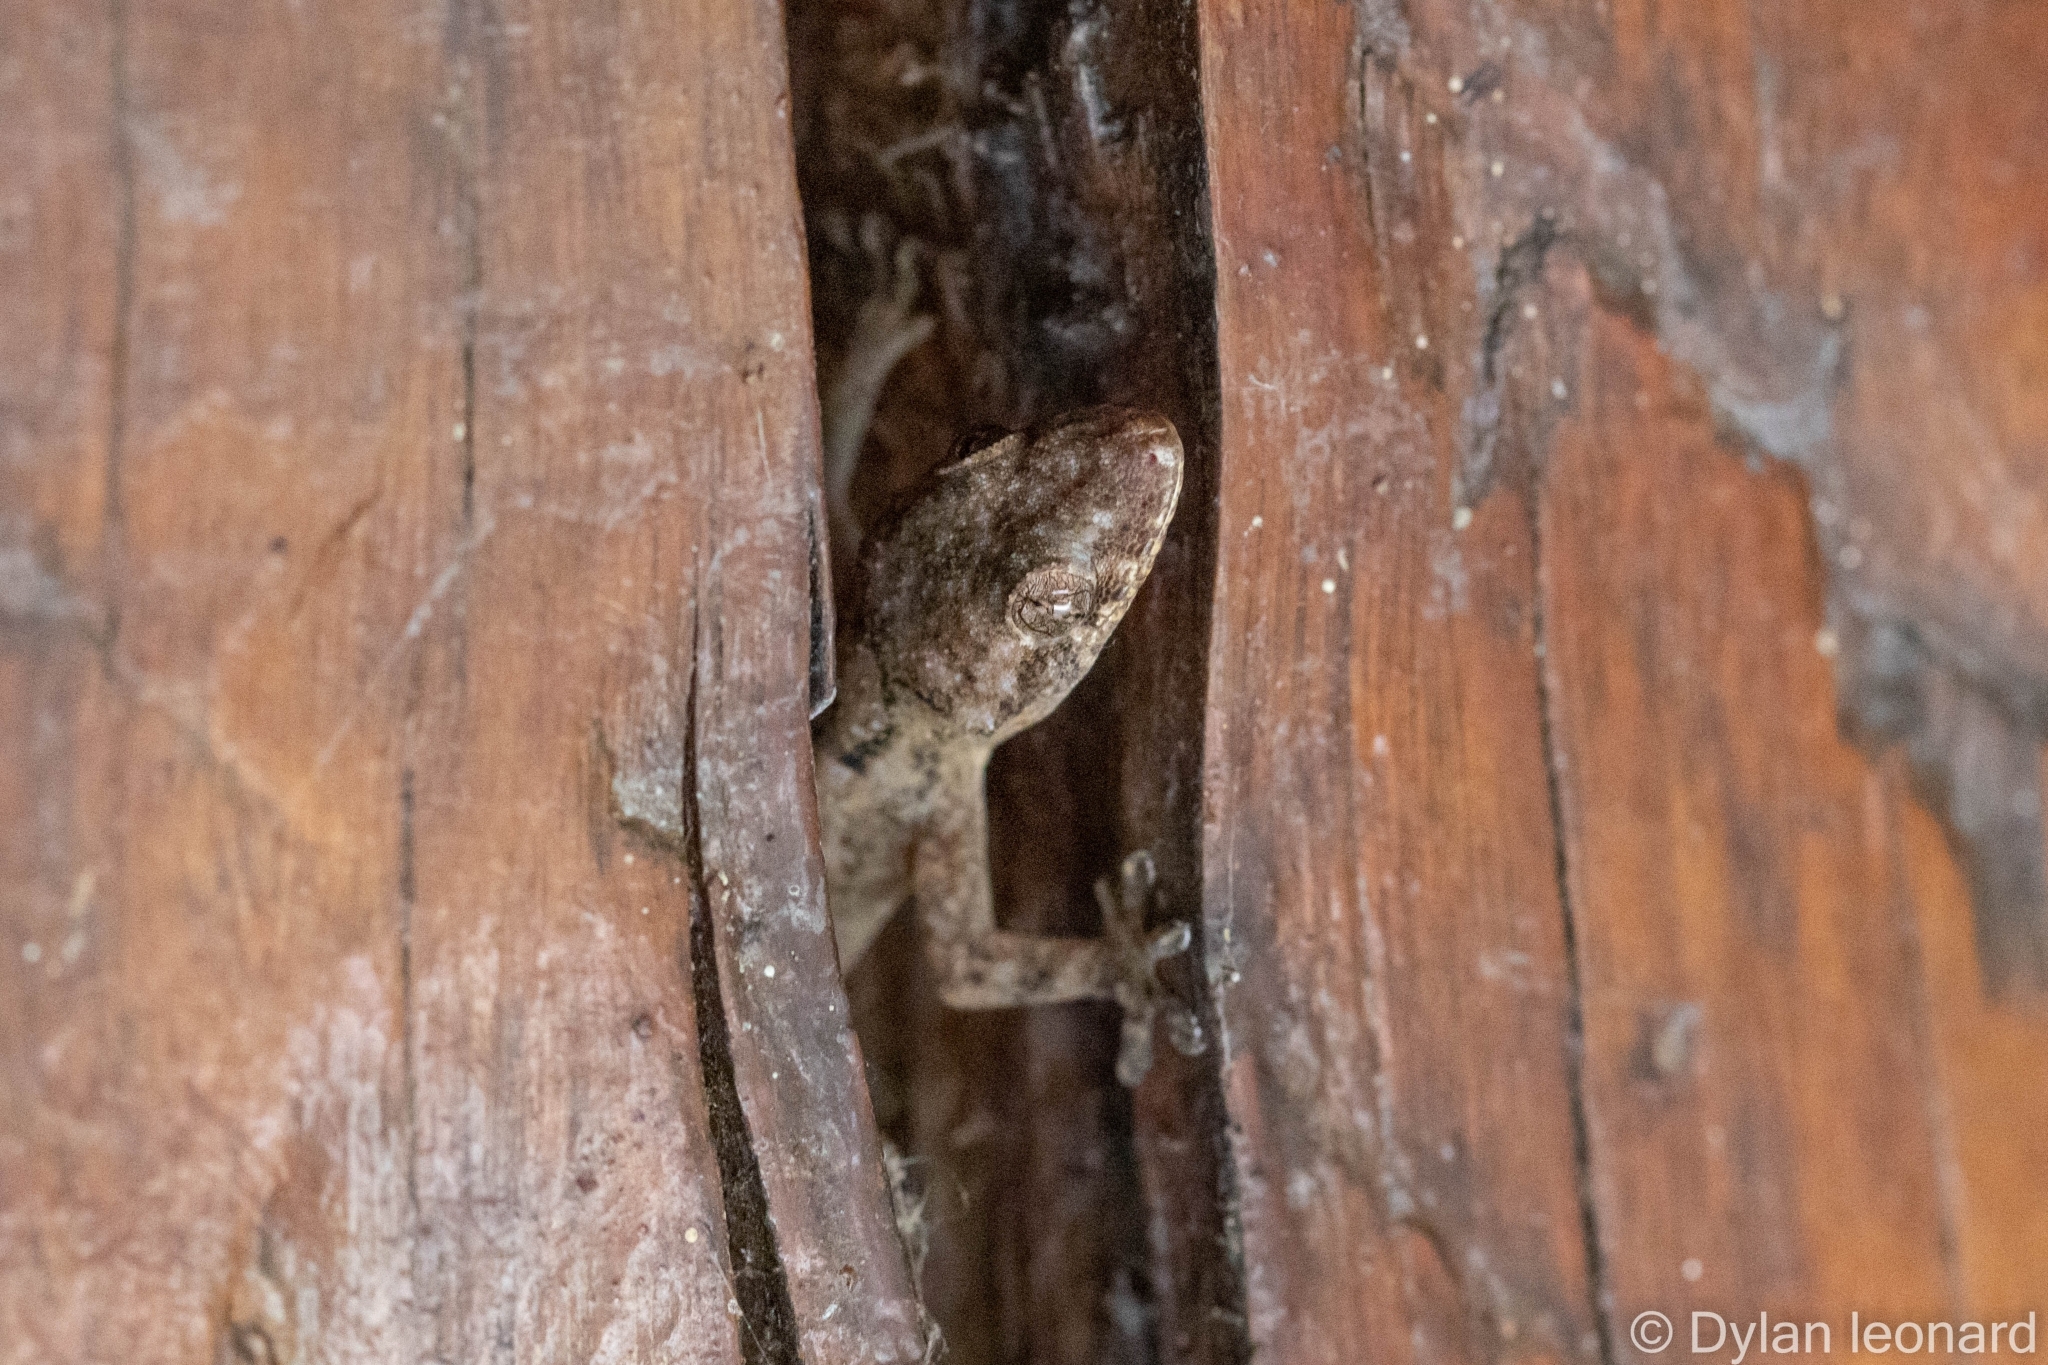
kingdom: Animalia
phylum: Chordata
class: Squamata
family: Gekkonidae
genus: Hemidactylus
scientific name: Hemidactylus mabouia
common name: House gecko
